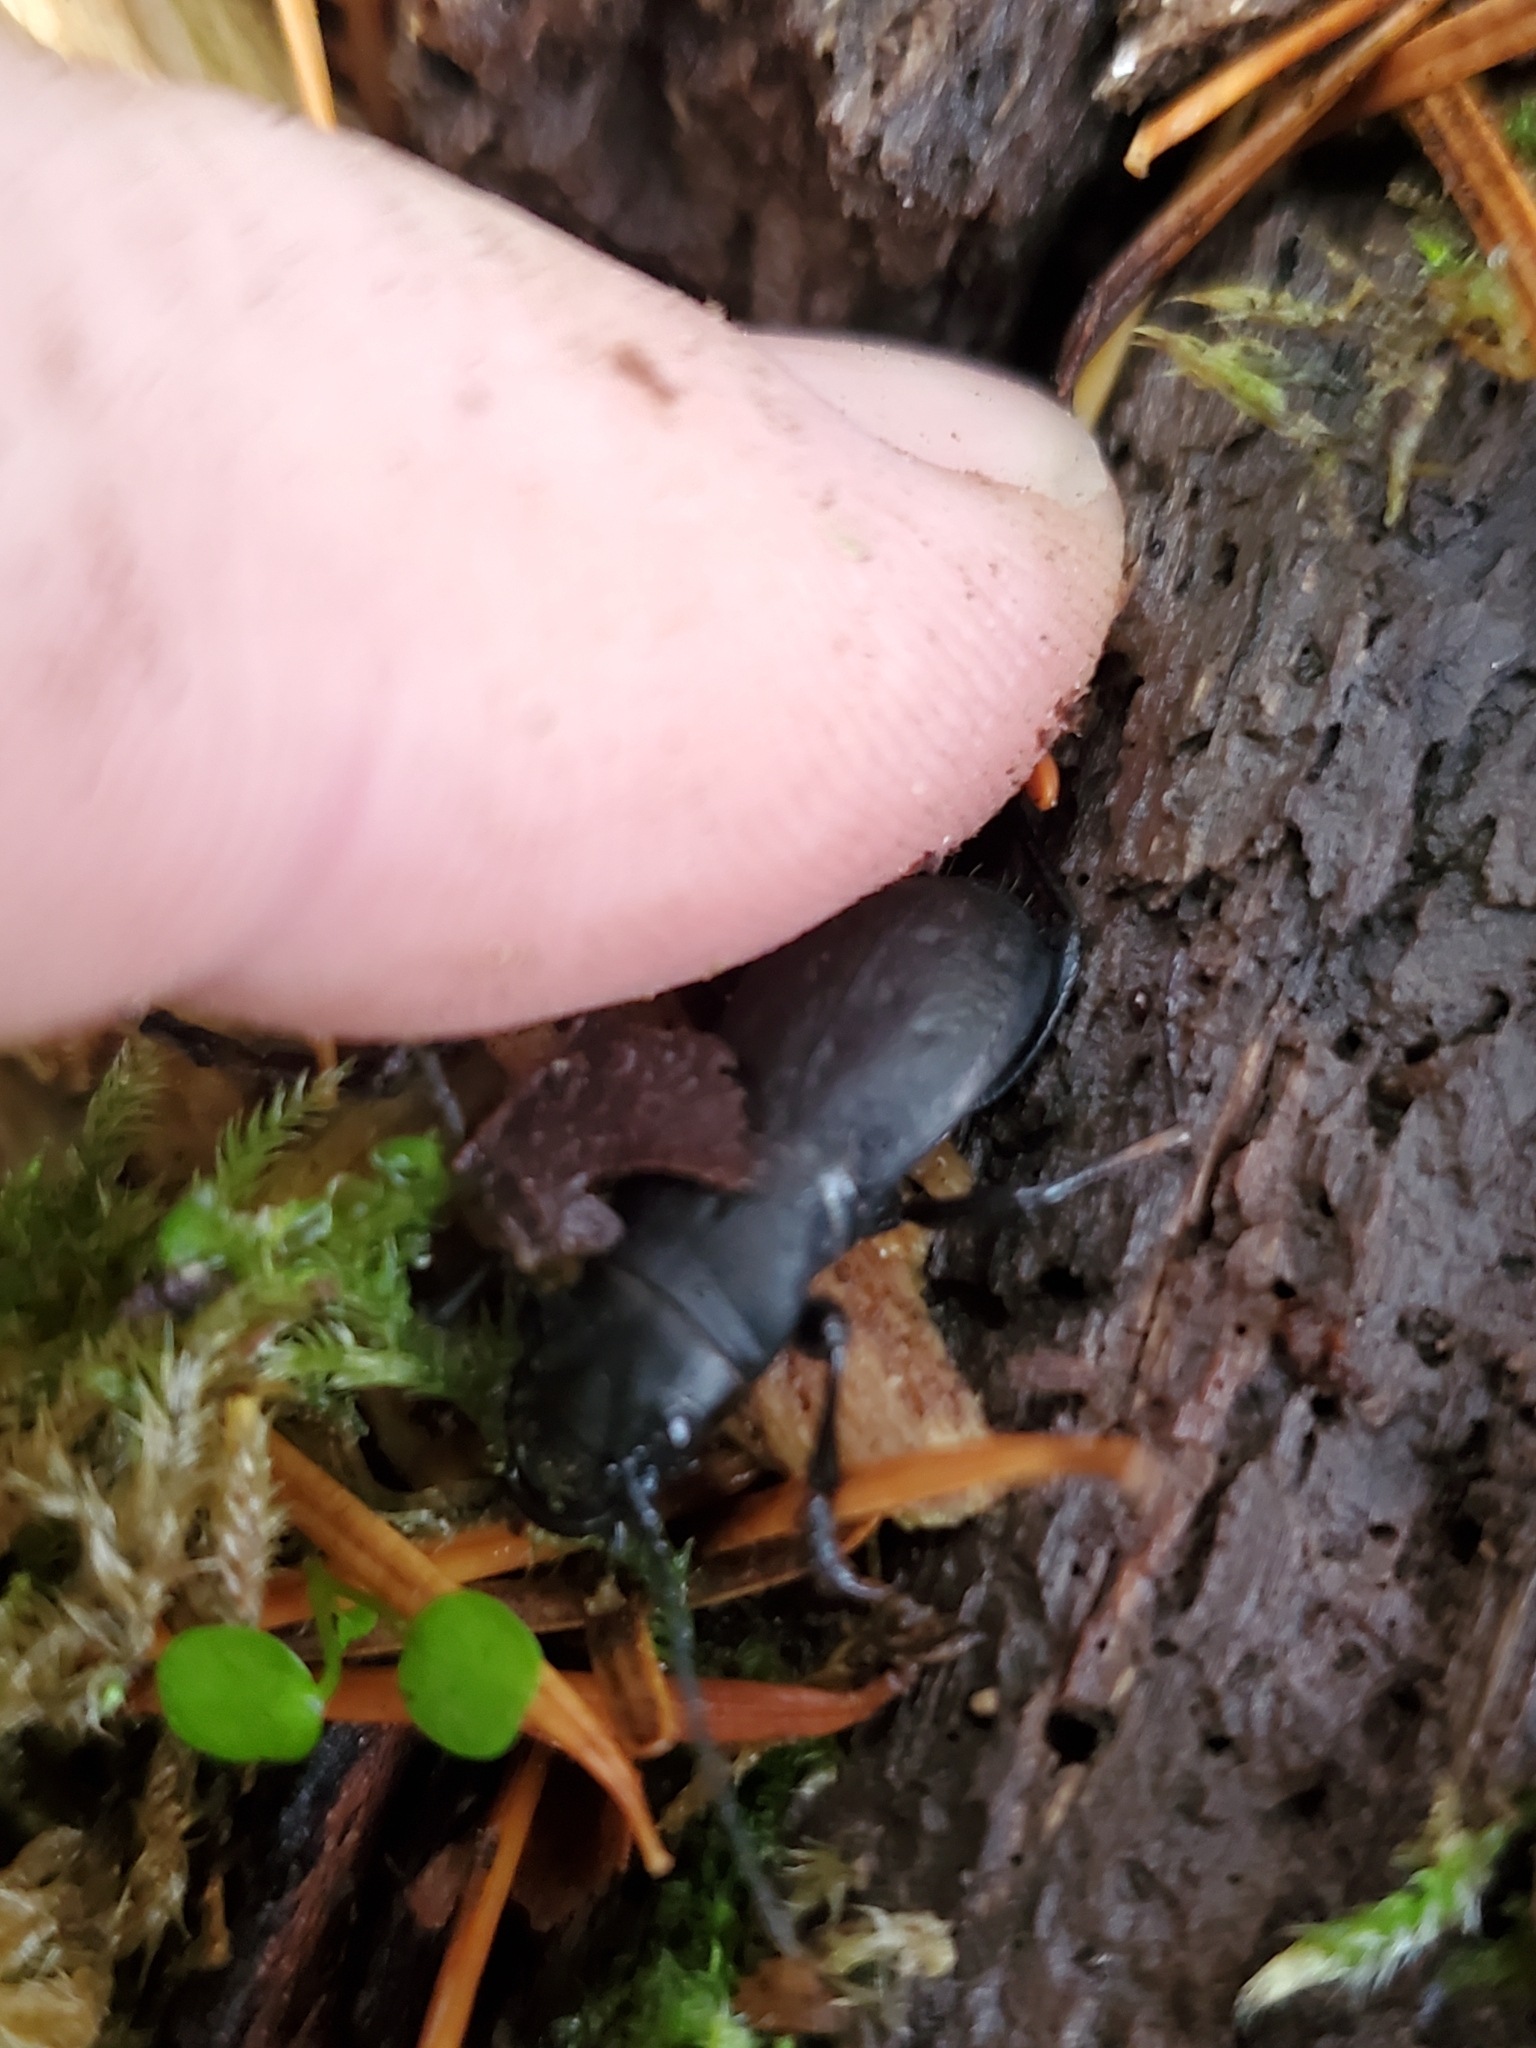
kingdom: Animalia
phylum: Arthropoda
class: Insecta
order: Coleoptera
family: Carabidae
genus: Omus
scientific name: Omus dejeanii
